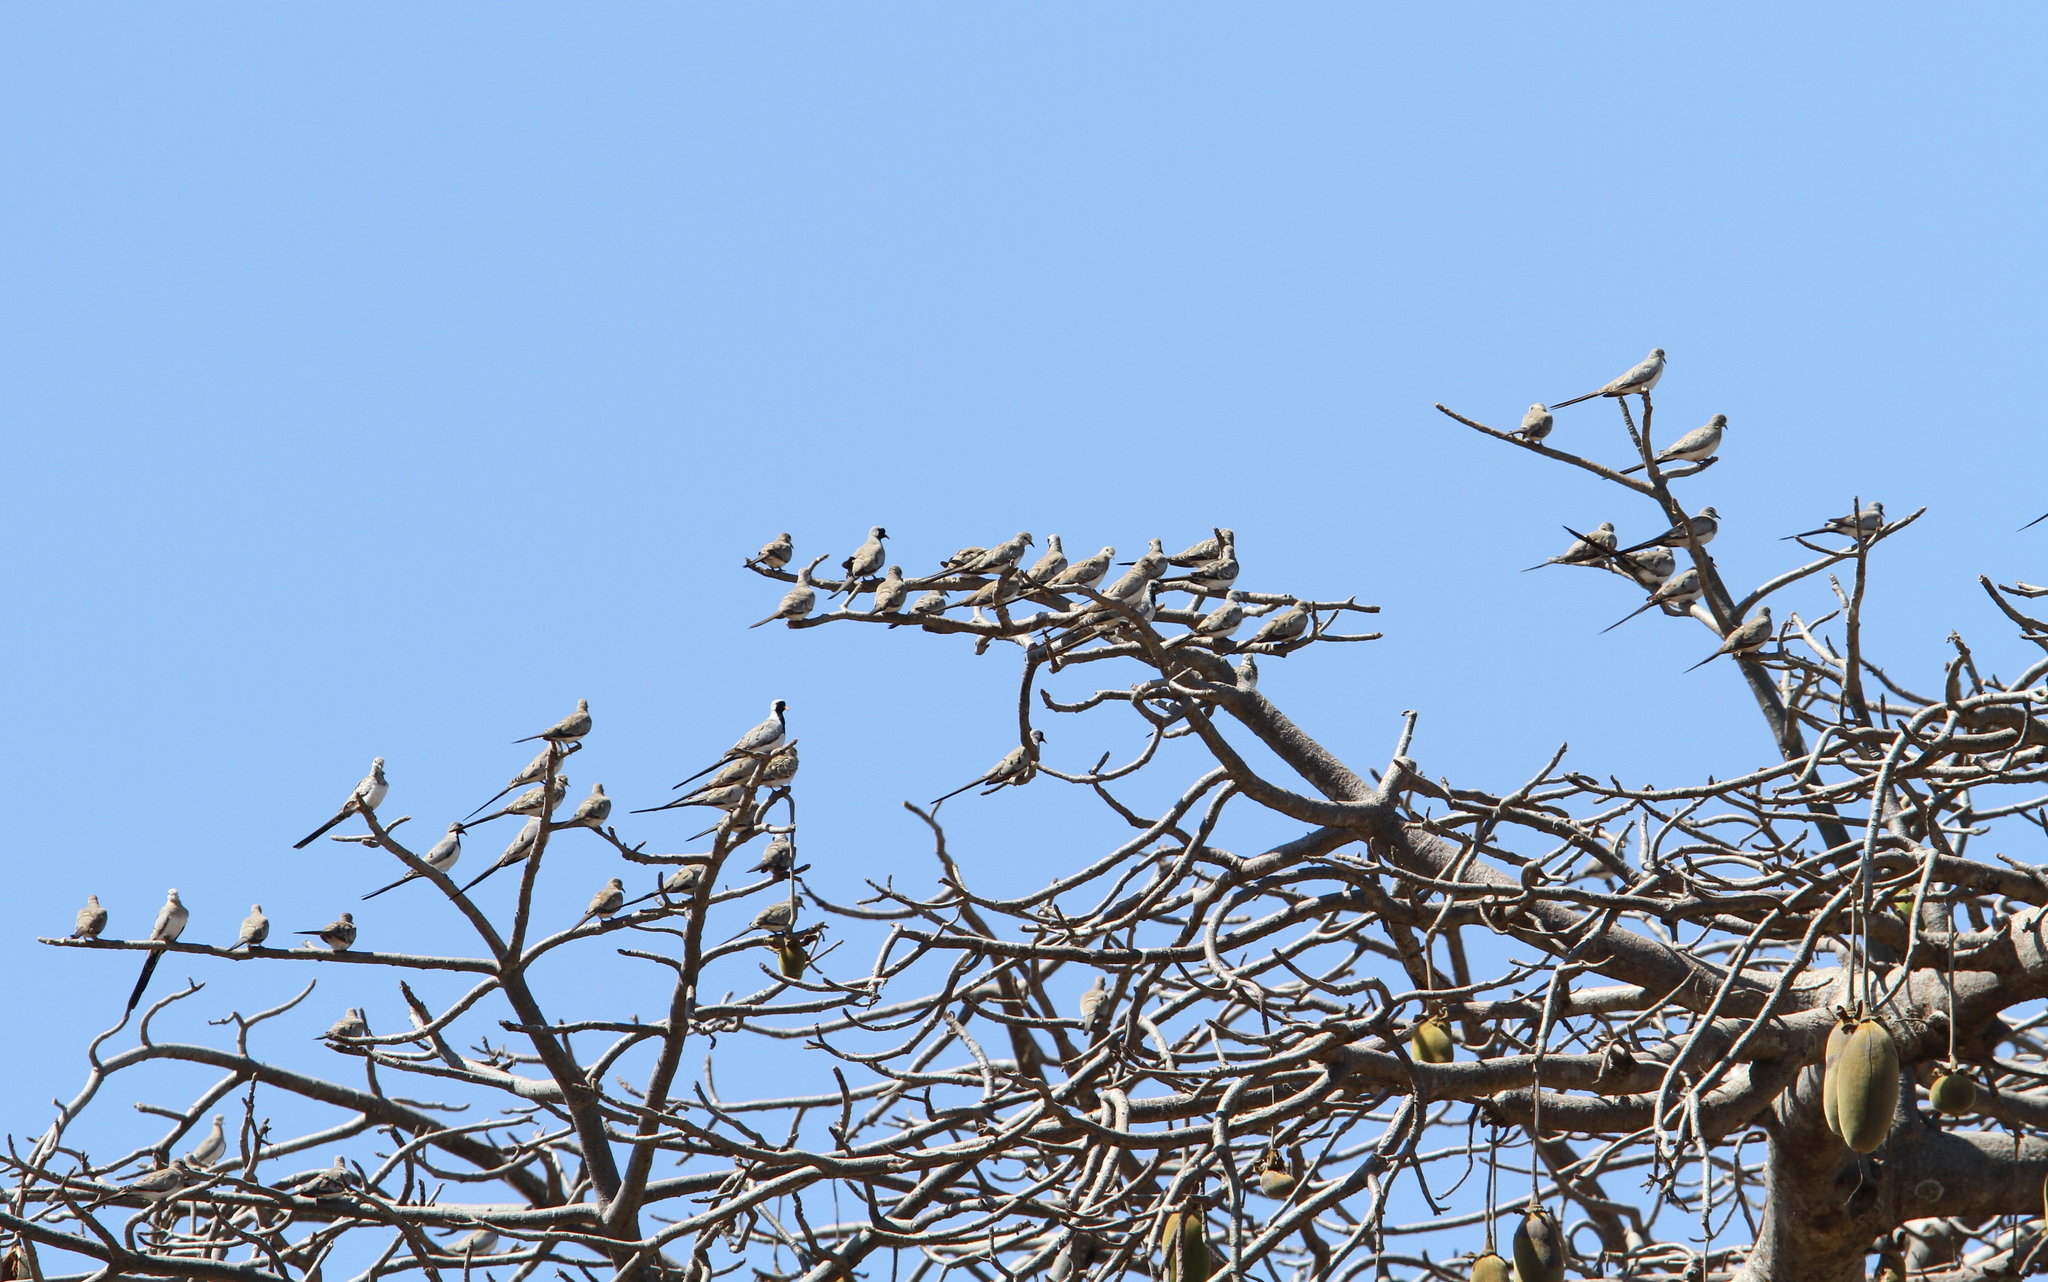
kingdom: Animalia
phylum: Chordata
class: Aves
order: Columbiformes
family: Columbidae
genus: Oena
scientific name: Oena capensis
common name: Namaqua dove
